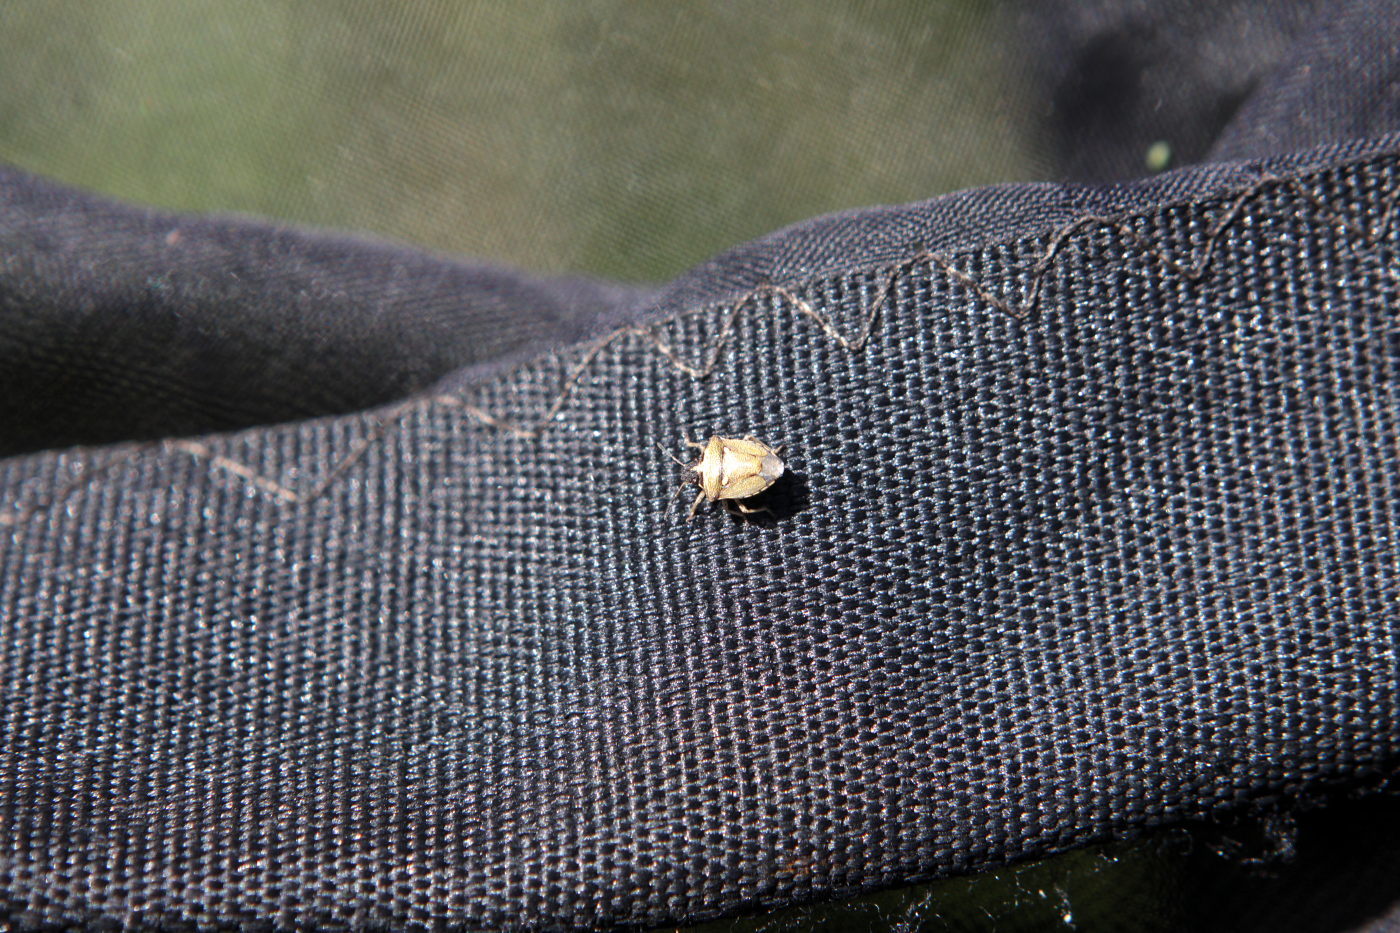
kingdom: Animalia
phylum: Arthropoda
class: Insecta
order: Hemiptera
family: Pentatomidae
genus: Eysarcoris
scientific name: Eysarcoris aeneus
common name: New forest shieldbug
